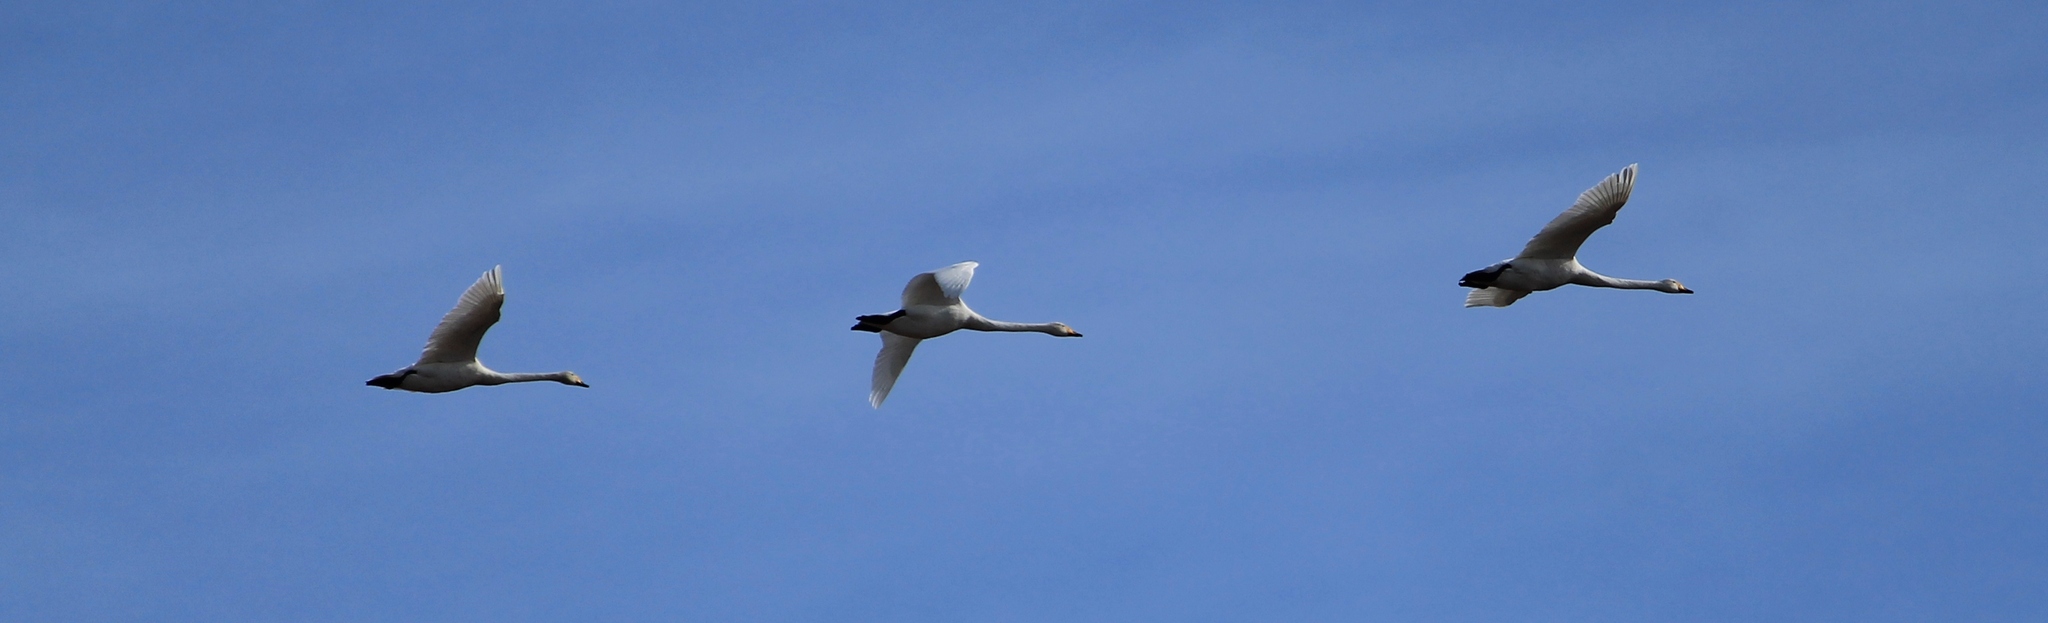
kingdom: Animalia
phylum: Chordata
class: Aves
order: Anseriformes
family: Anatidae
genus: Cygnus
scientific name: Cygnus cygnus
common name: Whooper swan
